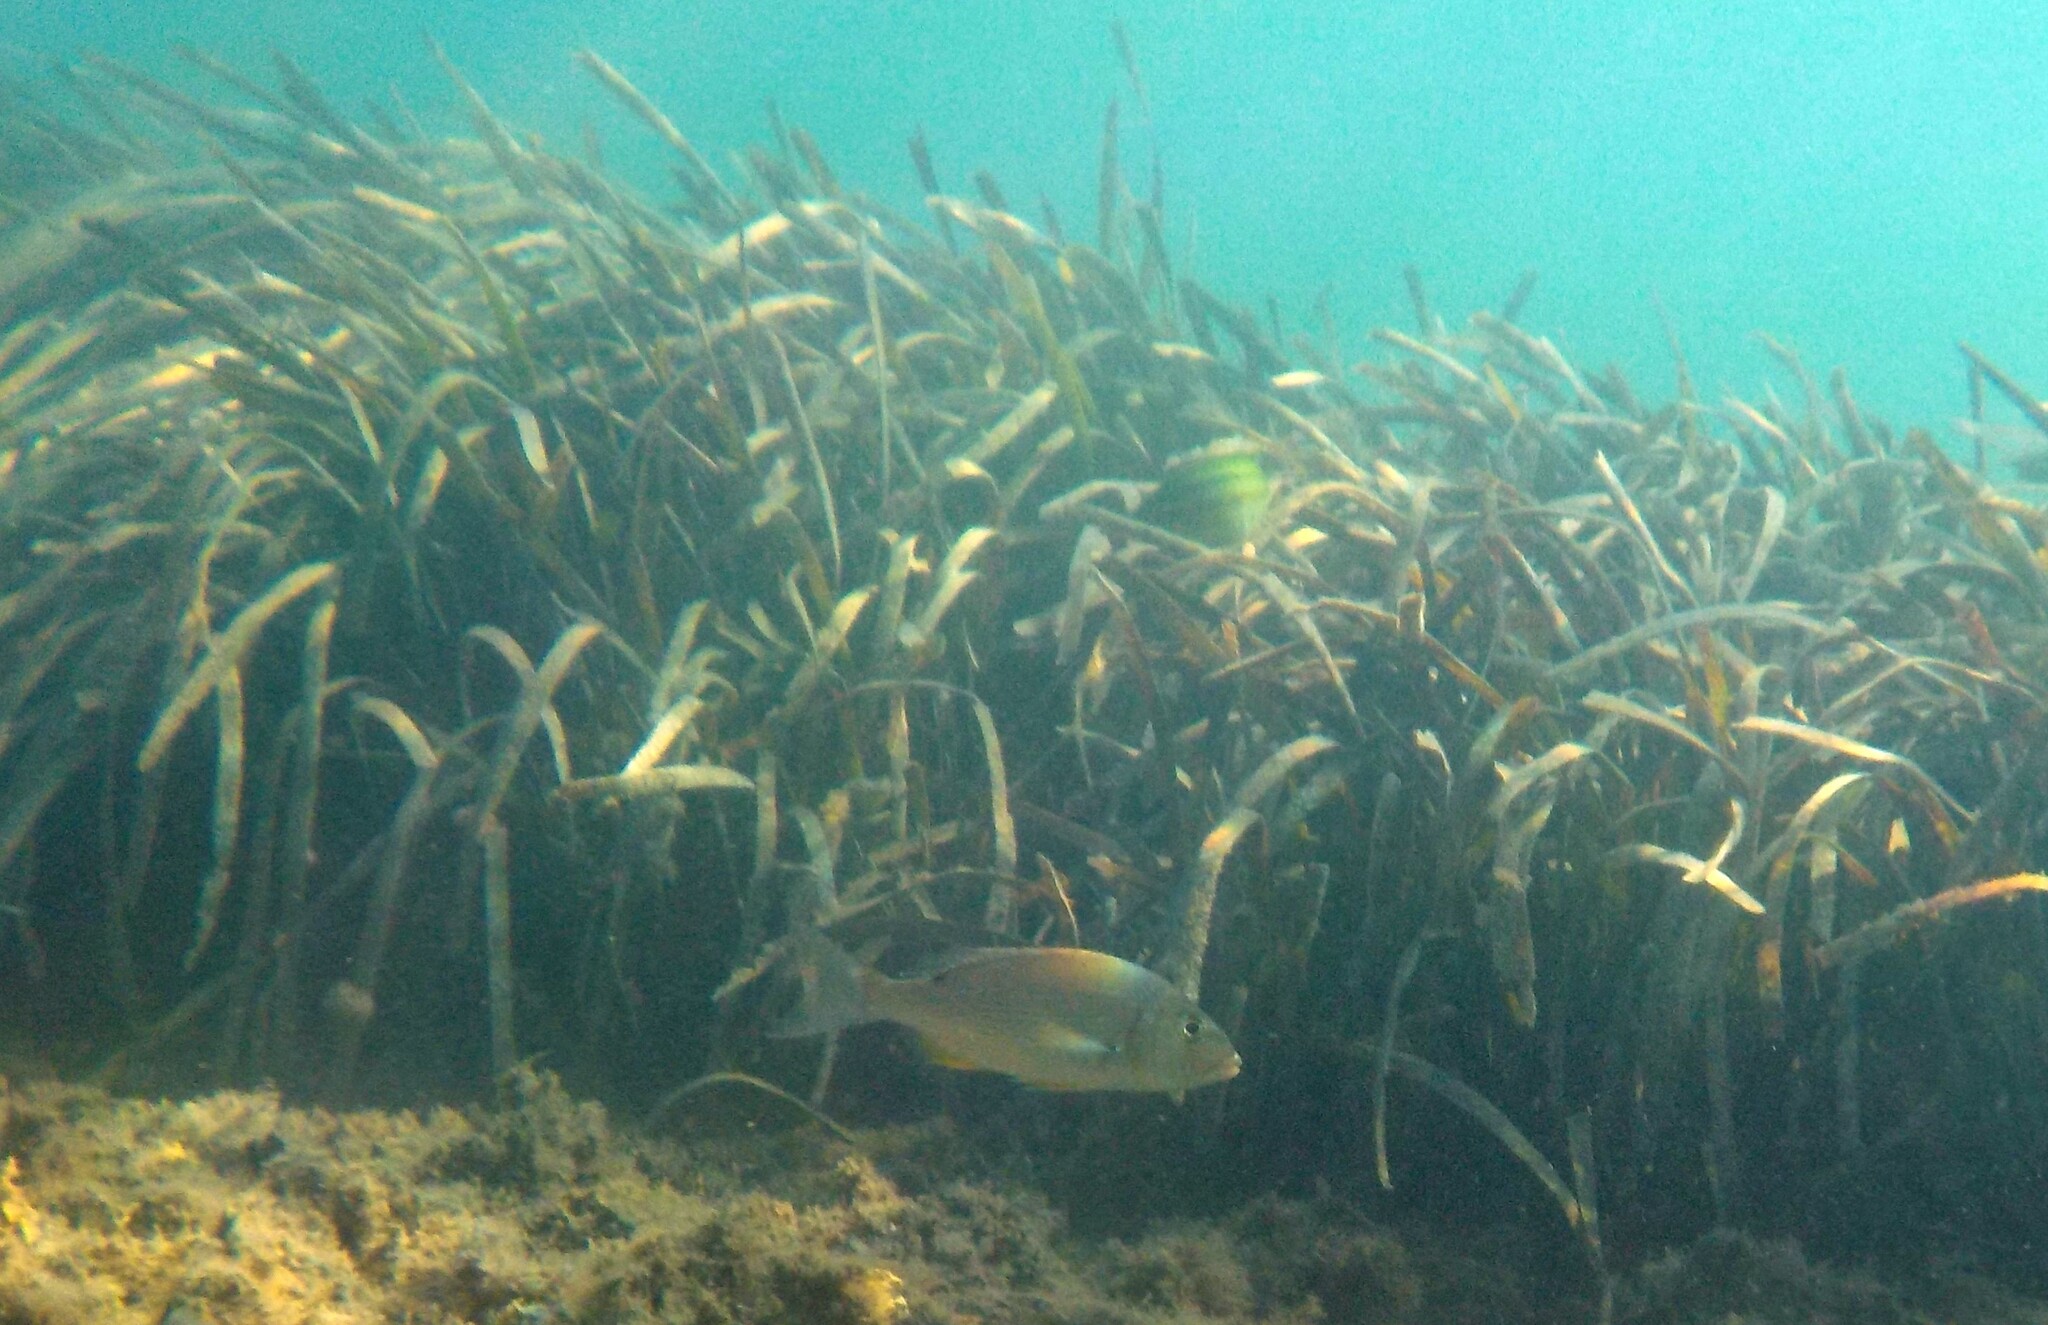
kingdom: Animalia
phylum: Chordata
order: Perciformes
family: Sparidae
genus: Dentex
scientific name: Dentex dentex
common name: Dentex
